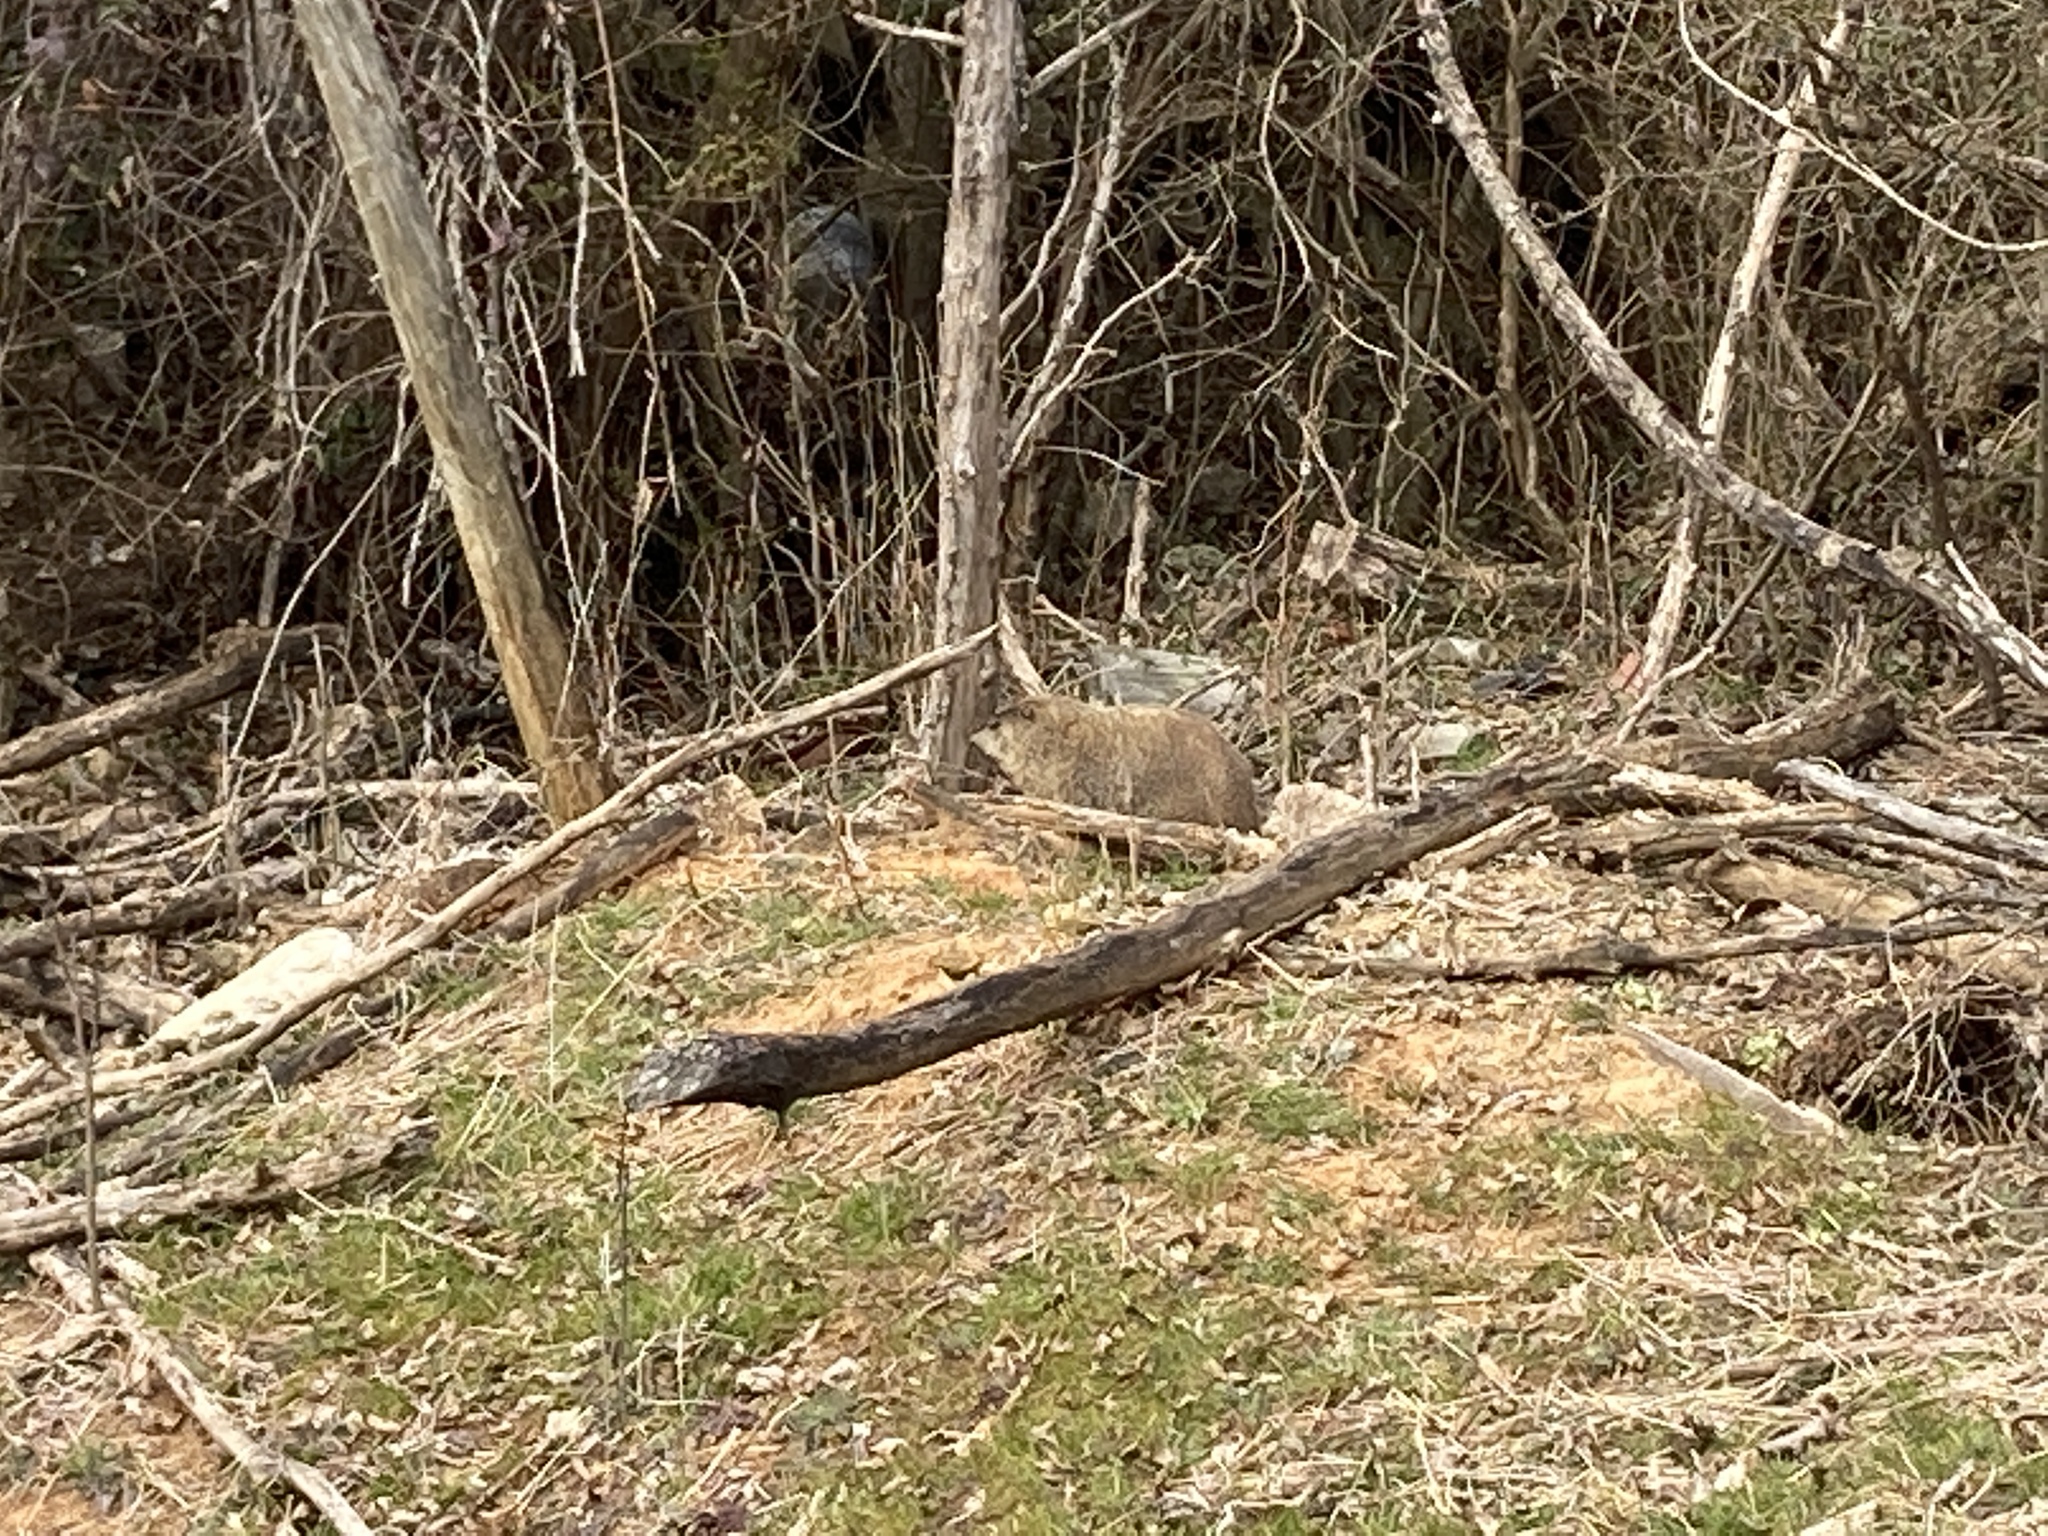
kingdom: Animalia
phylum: Chordata
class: Mammalia
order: Rodentia
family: Sciuridae
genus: Marmota
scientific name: Marmota monax
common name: Groundhog
